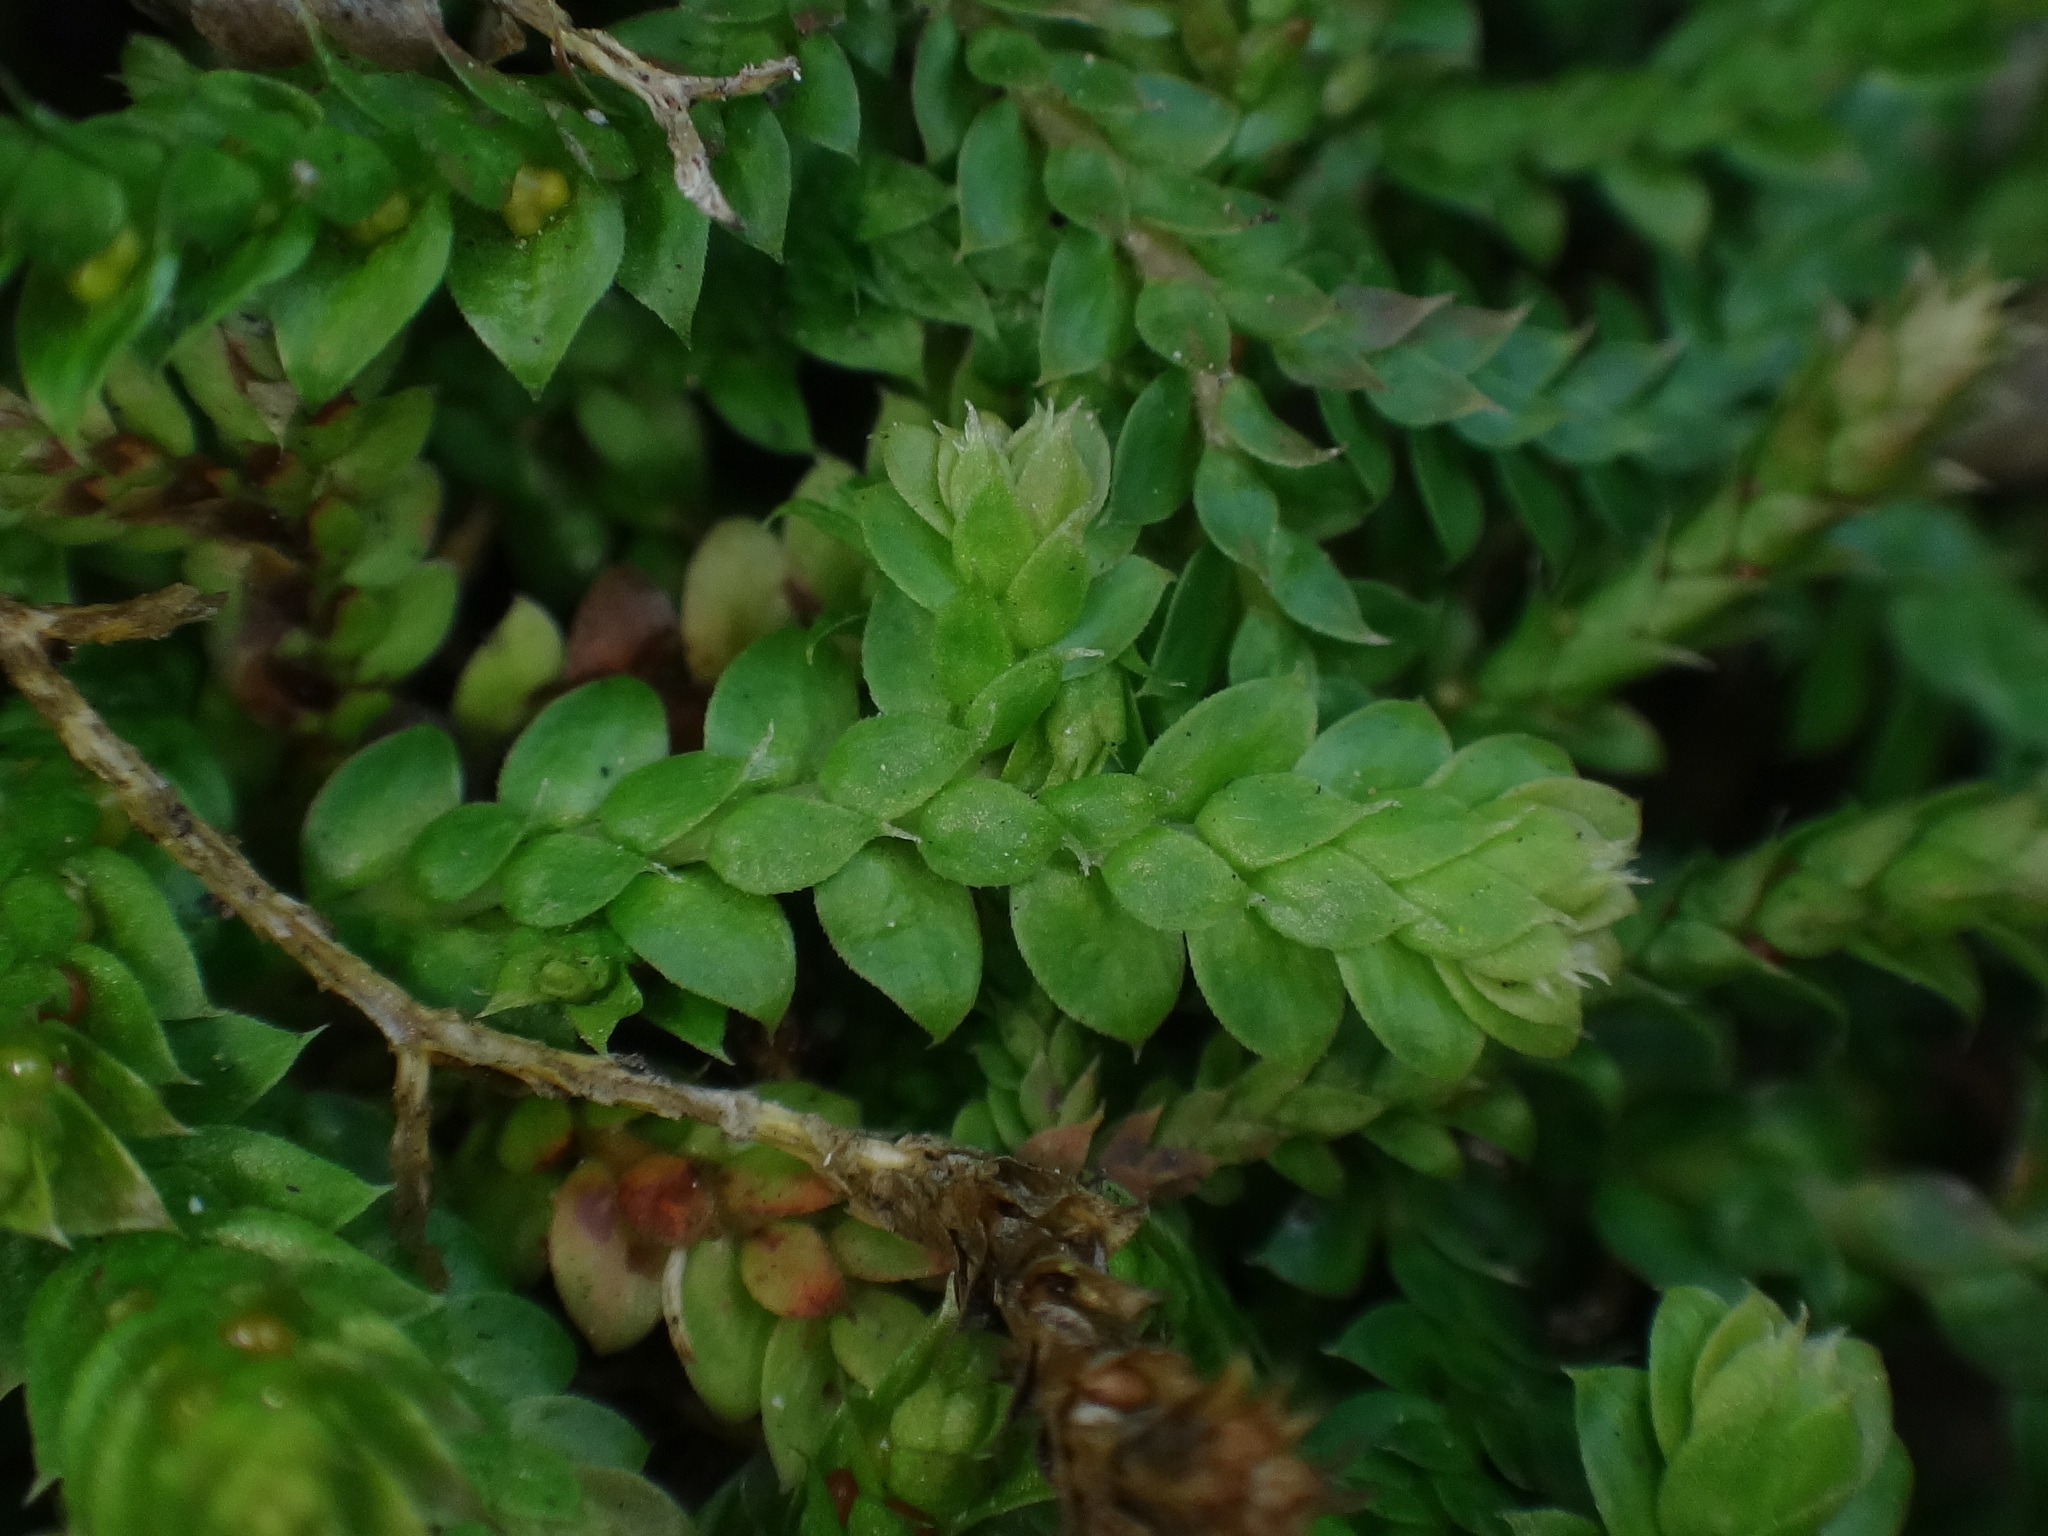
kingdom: Plantae
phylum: Tracheophyta
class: Lycopodiopsida
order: Selaginellales
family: Selaginellaceae
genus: Selaginella
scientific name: Selaginella denticulata
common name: Toothed-leaved clubmoss
